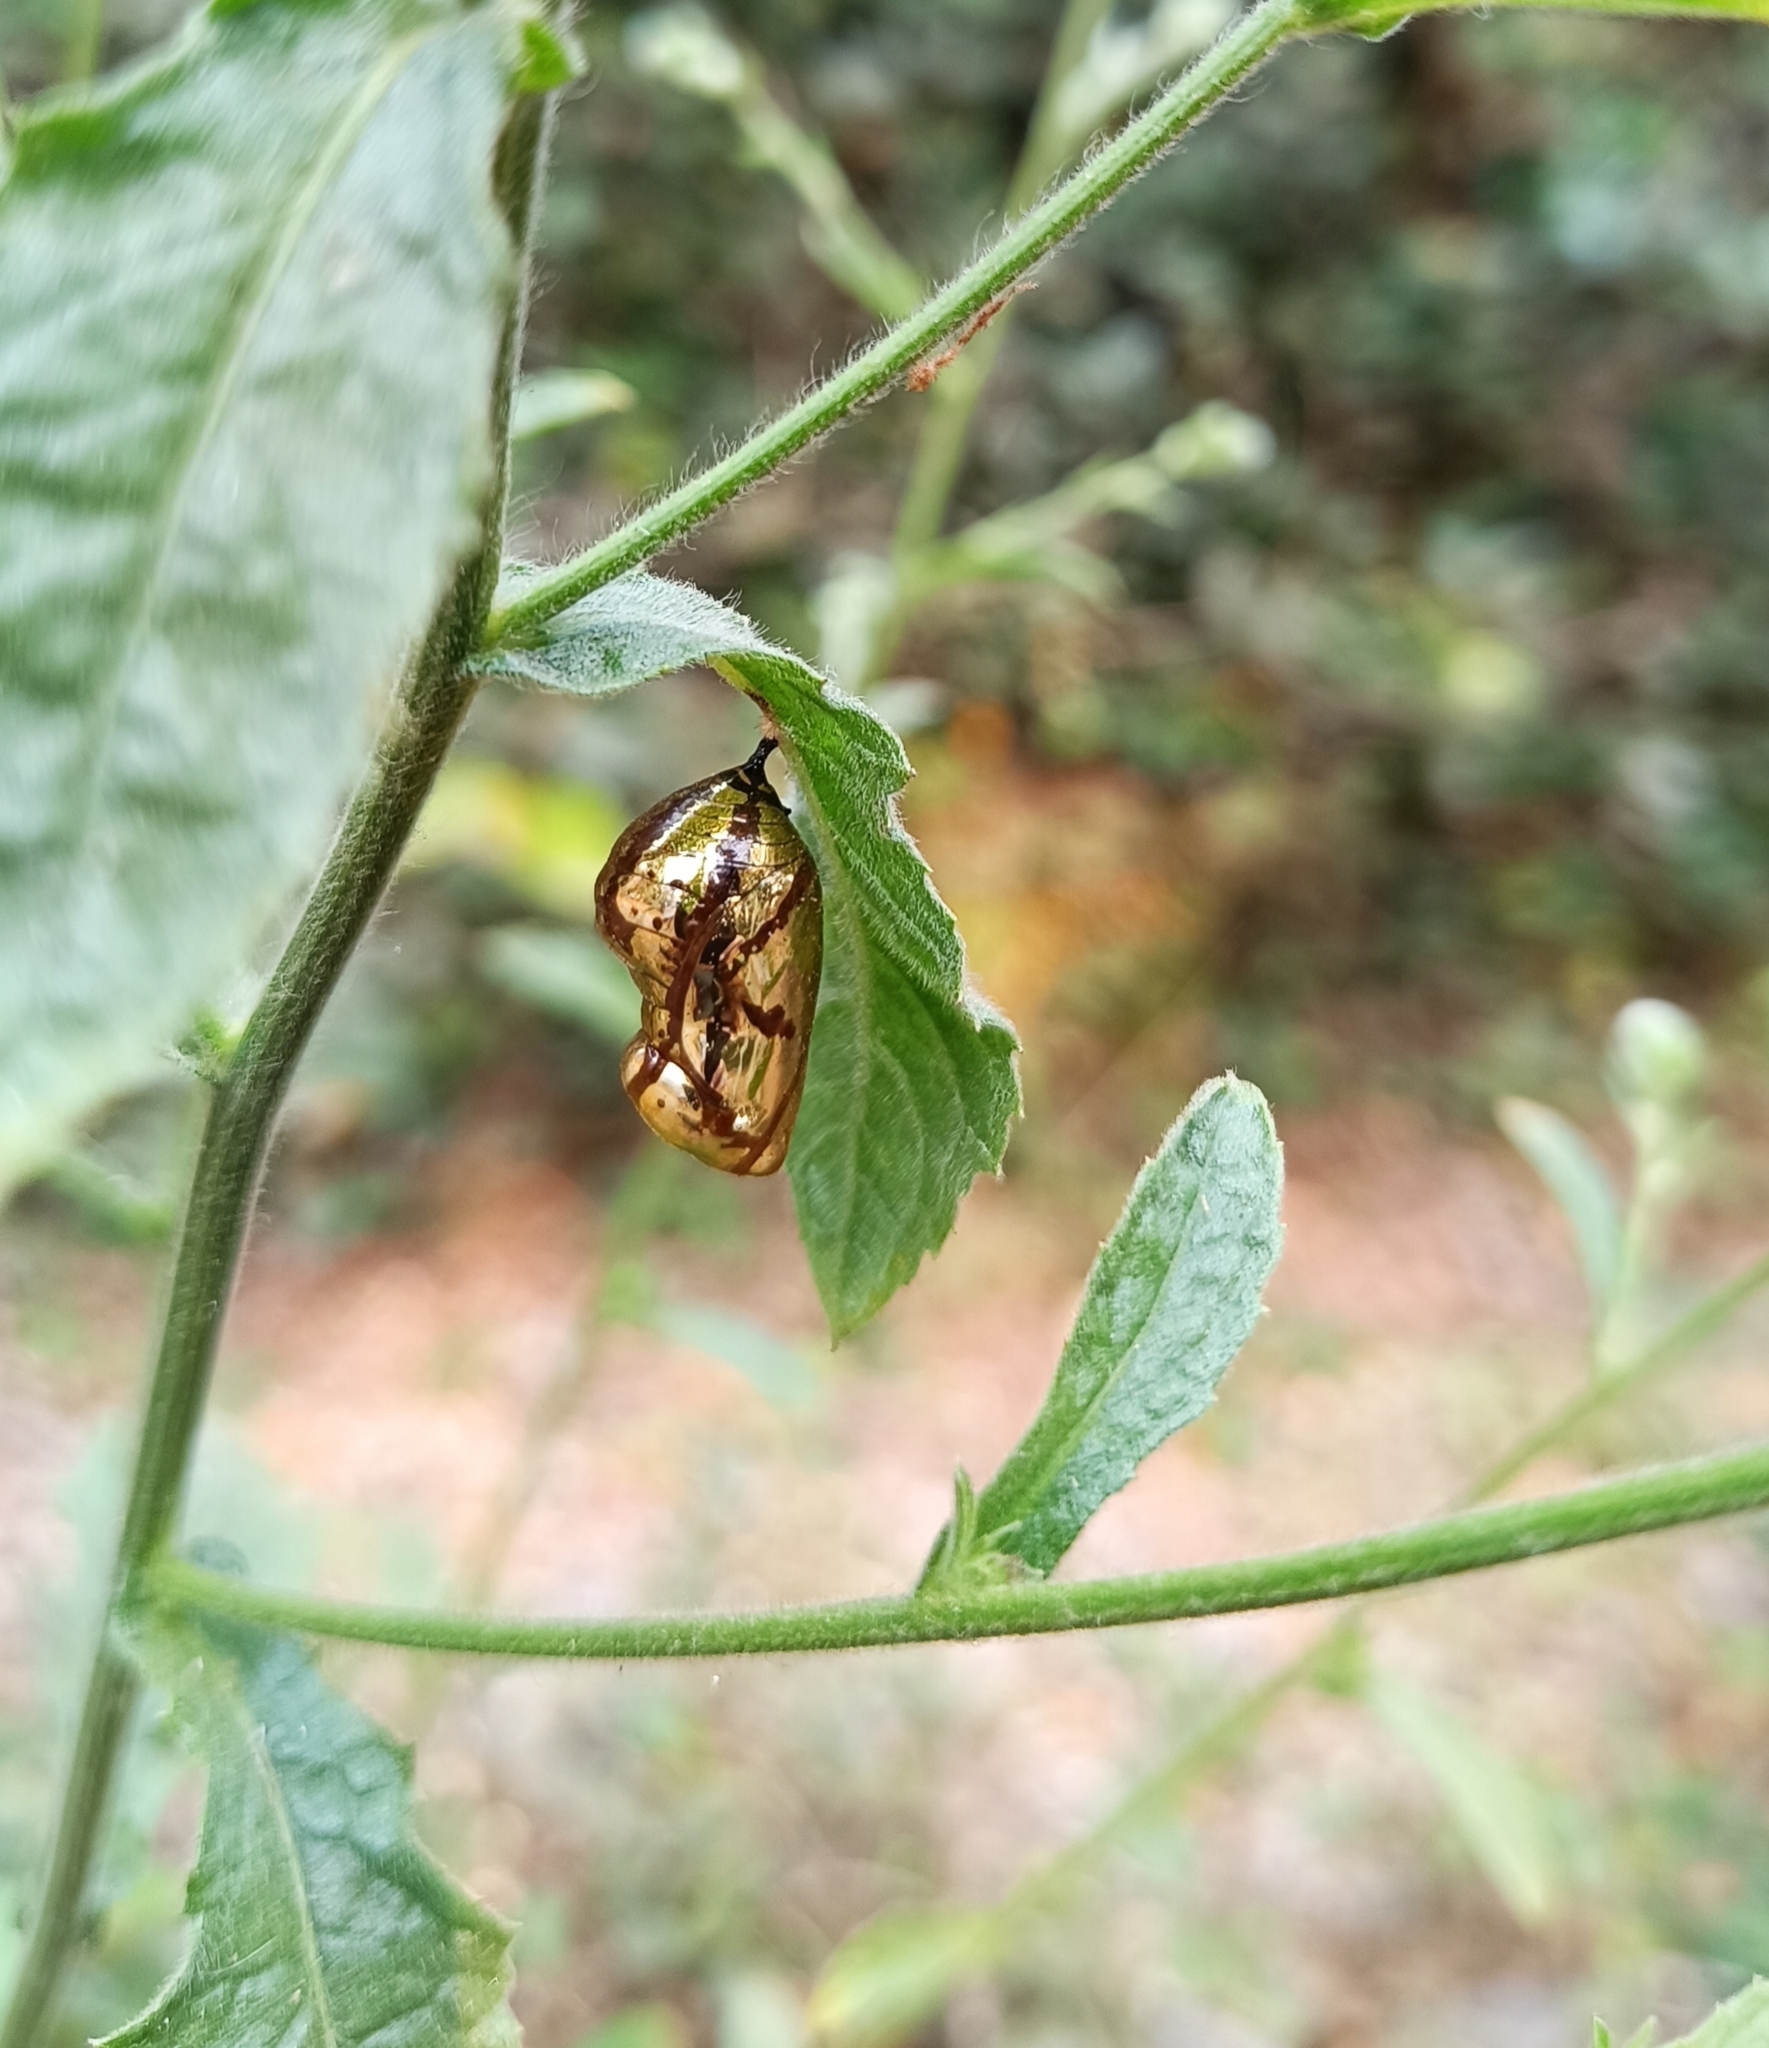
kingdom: Animalia
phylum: Arthropoda
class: Insecta
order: Lepidoptera
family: Nymphalidae
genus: Euploea
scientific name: Euploea core
